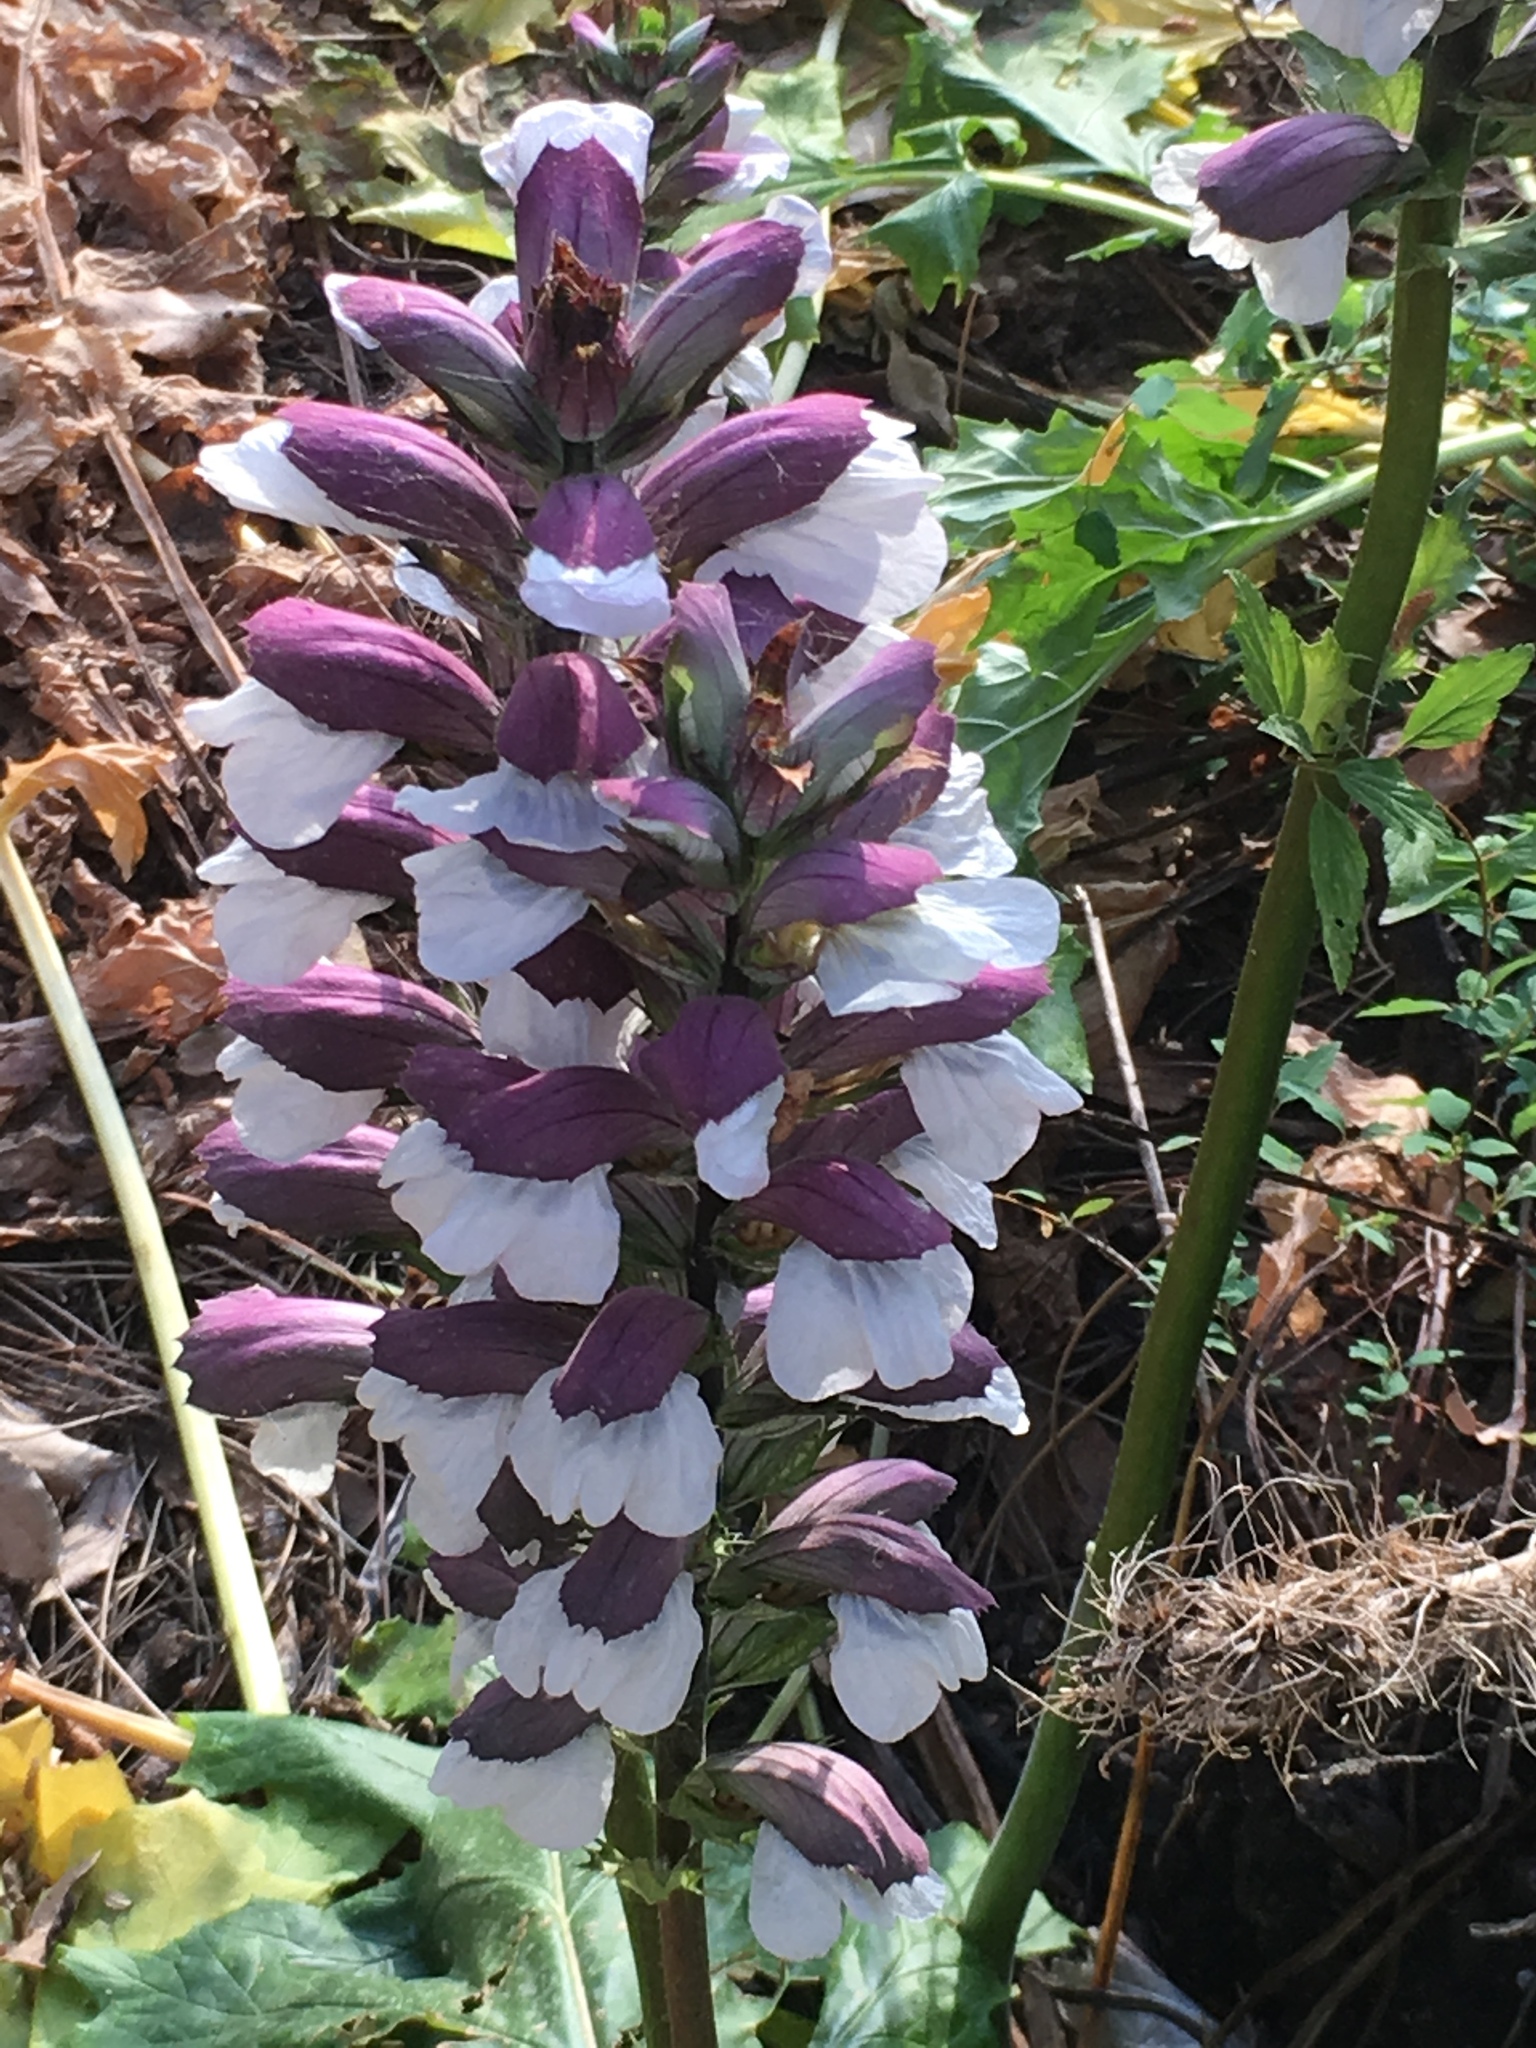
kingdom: Plantae
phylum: Tracheophyta
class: Magnoliopsida
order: Lamiales
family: Acanthaceae
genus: Acanthus
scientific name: Acanthus mollis
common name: Bear's-breech
